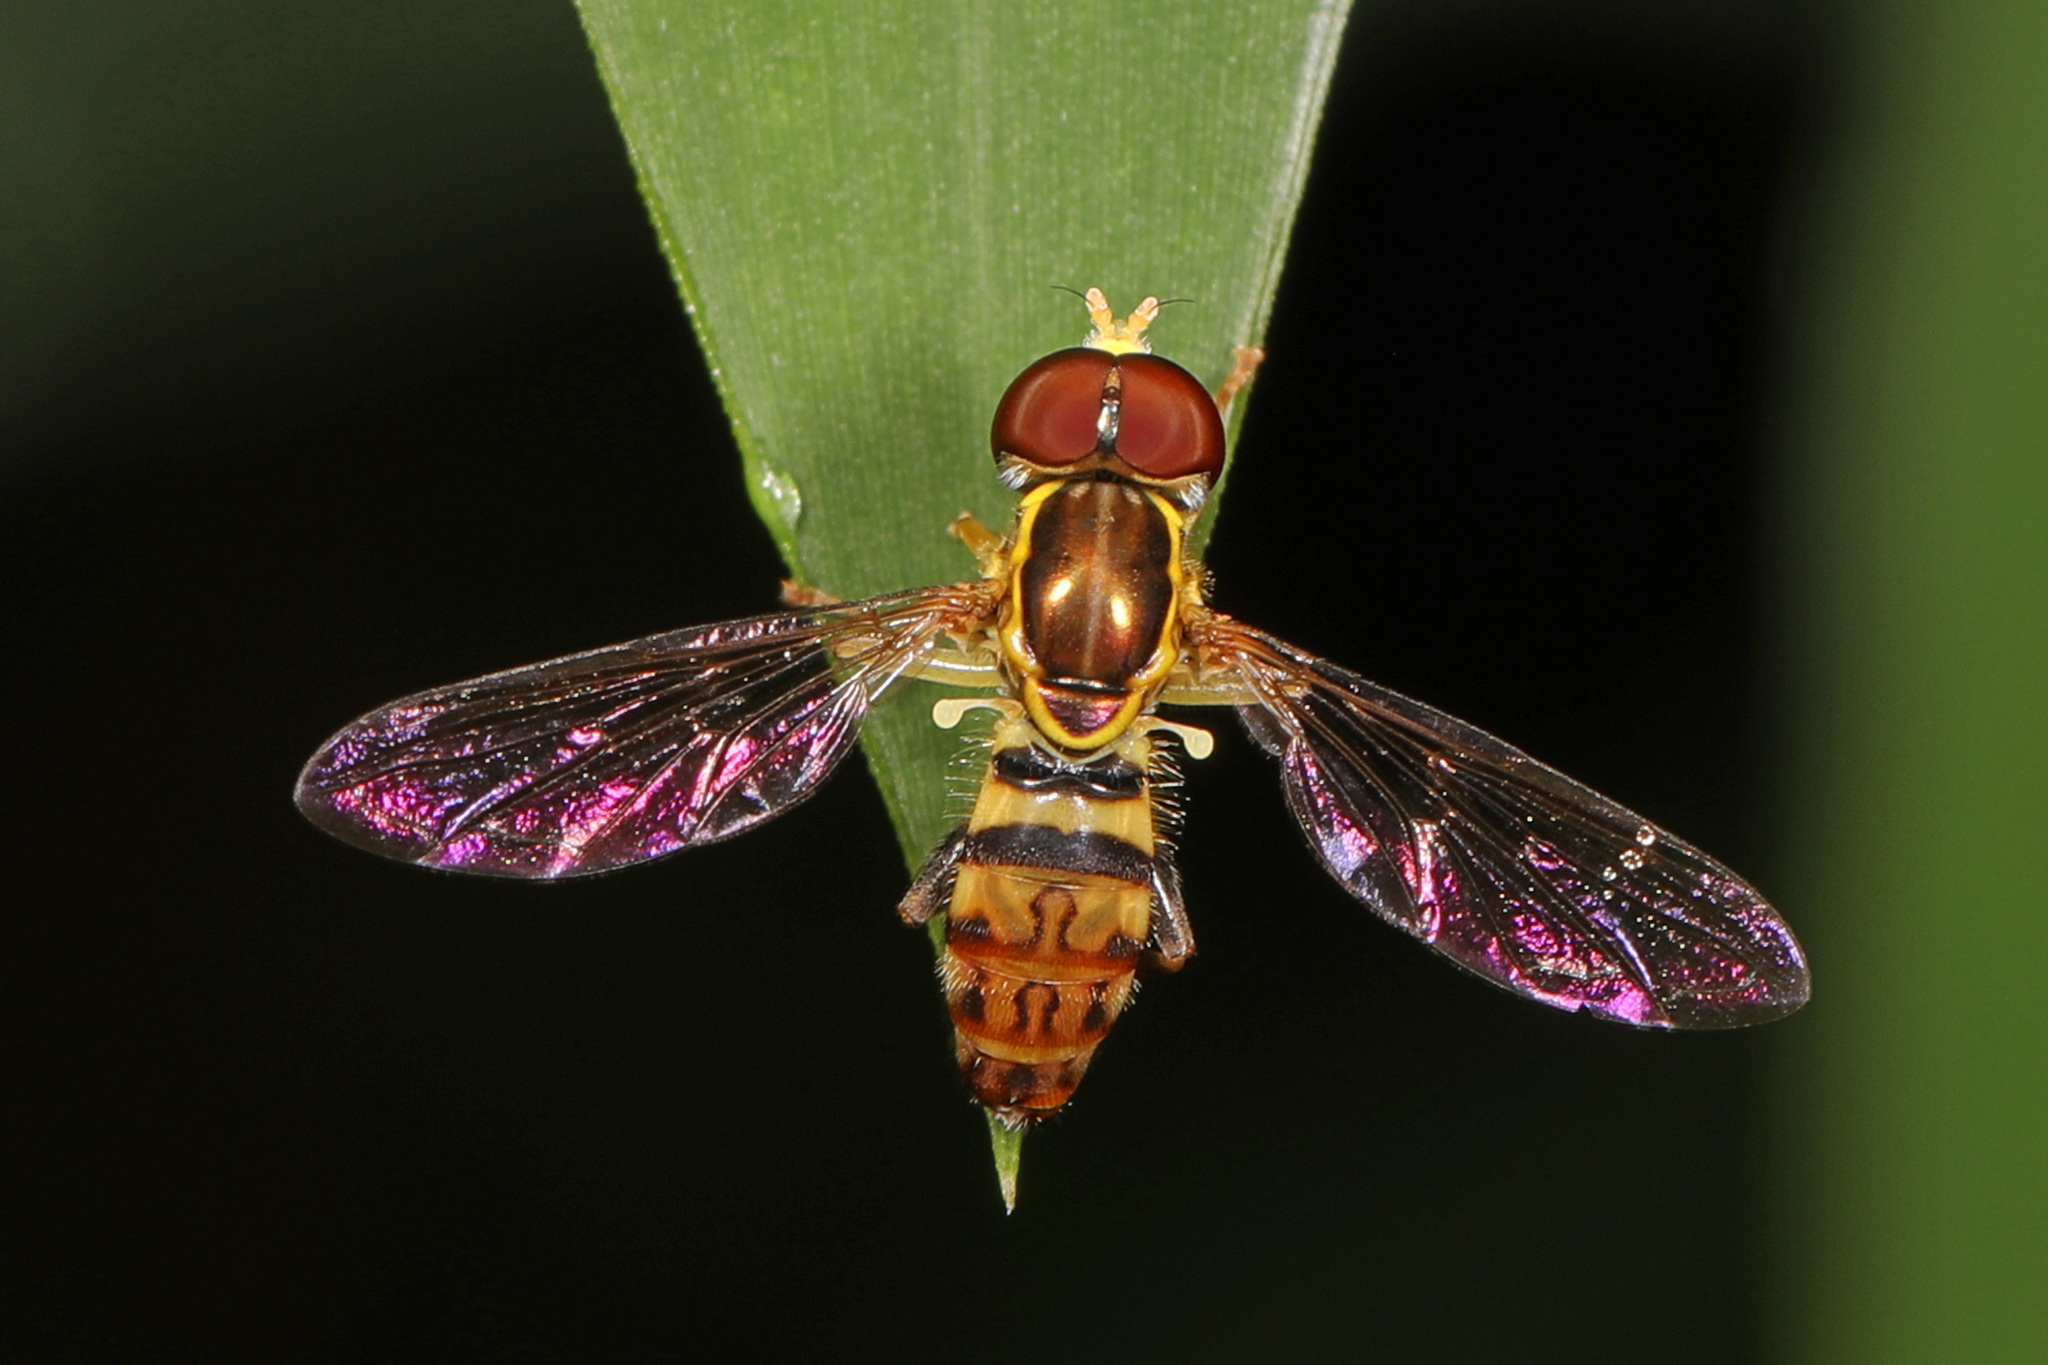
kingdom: Animalia
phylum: Arthropoda
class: Insecta
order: Diptera
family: Syrphidae
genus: Toxomerus
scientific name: Toxomerus geminatus
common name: Eastern calligrapher
